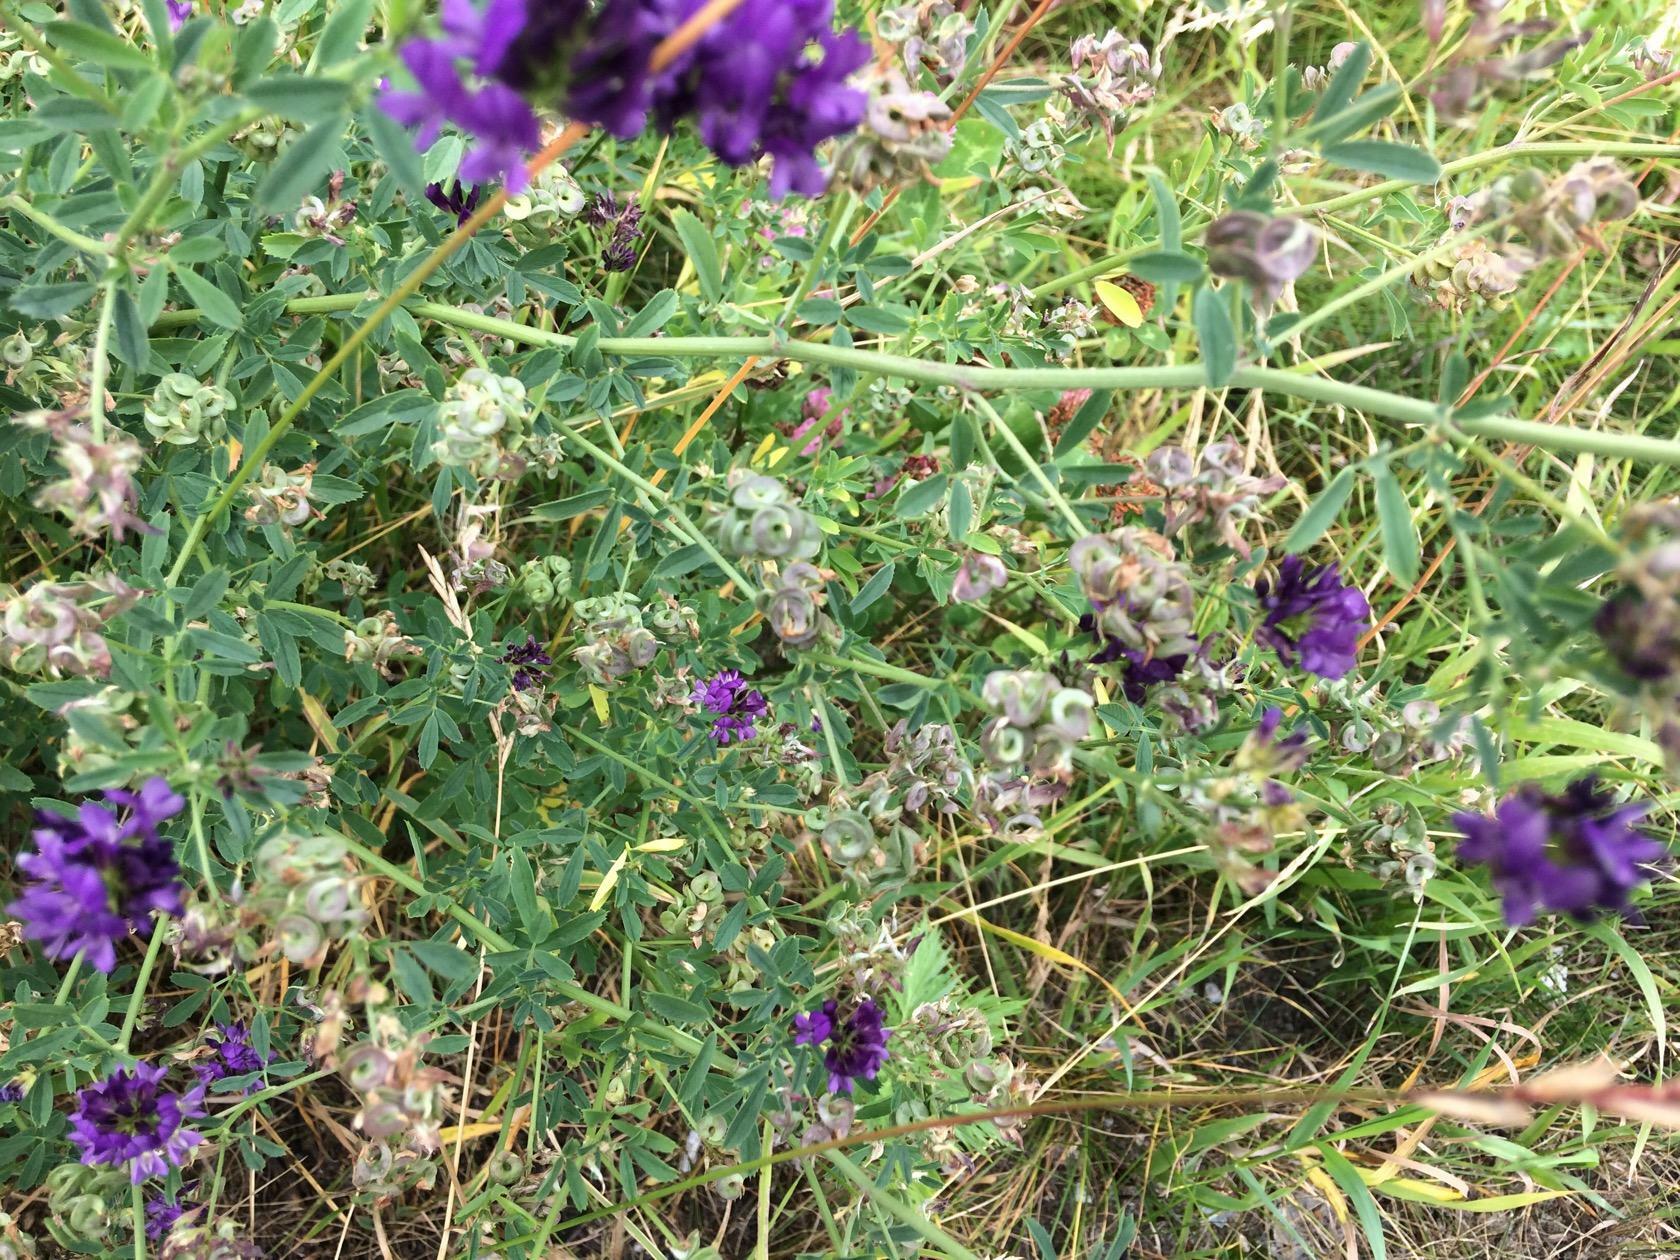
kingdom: Plantae
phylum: Tracheophyta
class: Magnoliopsida
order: Fabales
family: Fabaceae
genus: Medicago
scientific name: Medicago varia
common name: Sand lucerne
